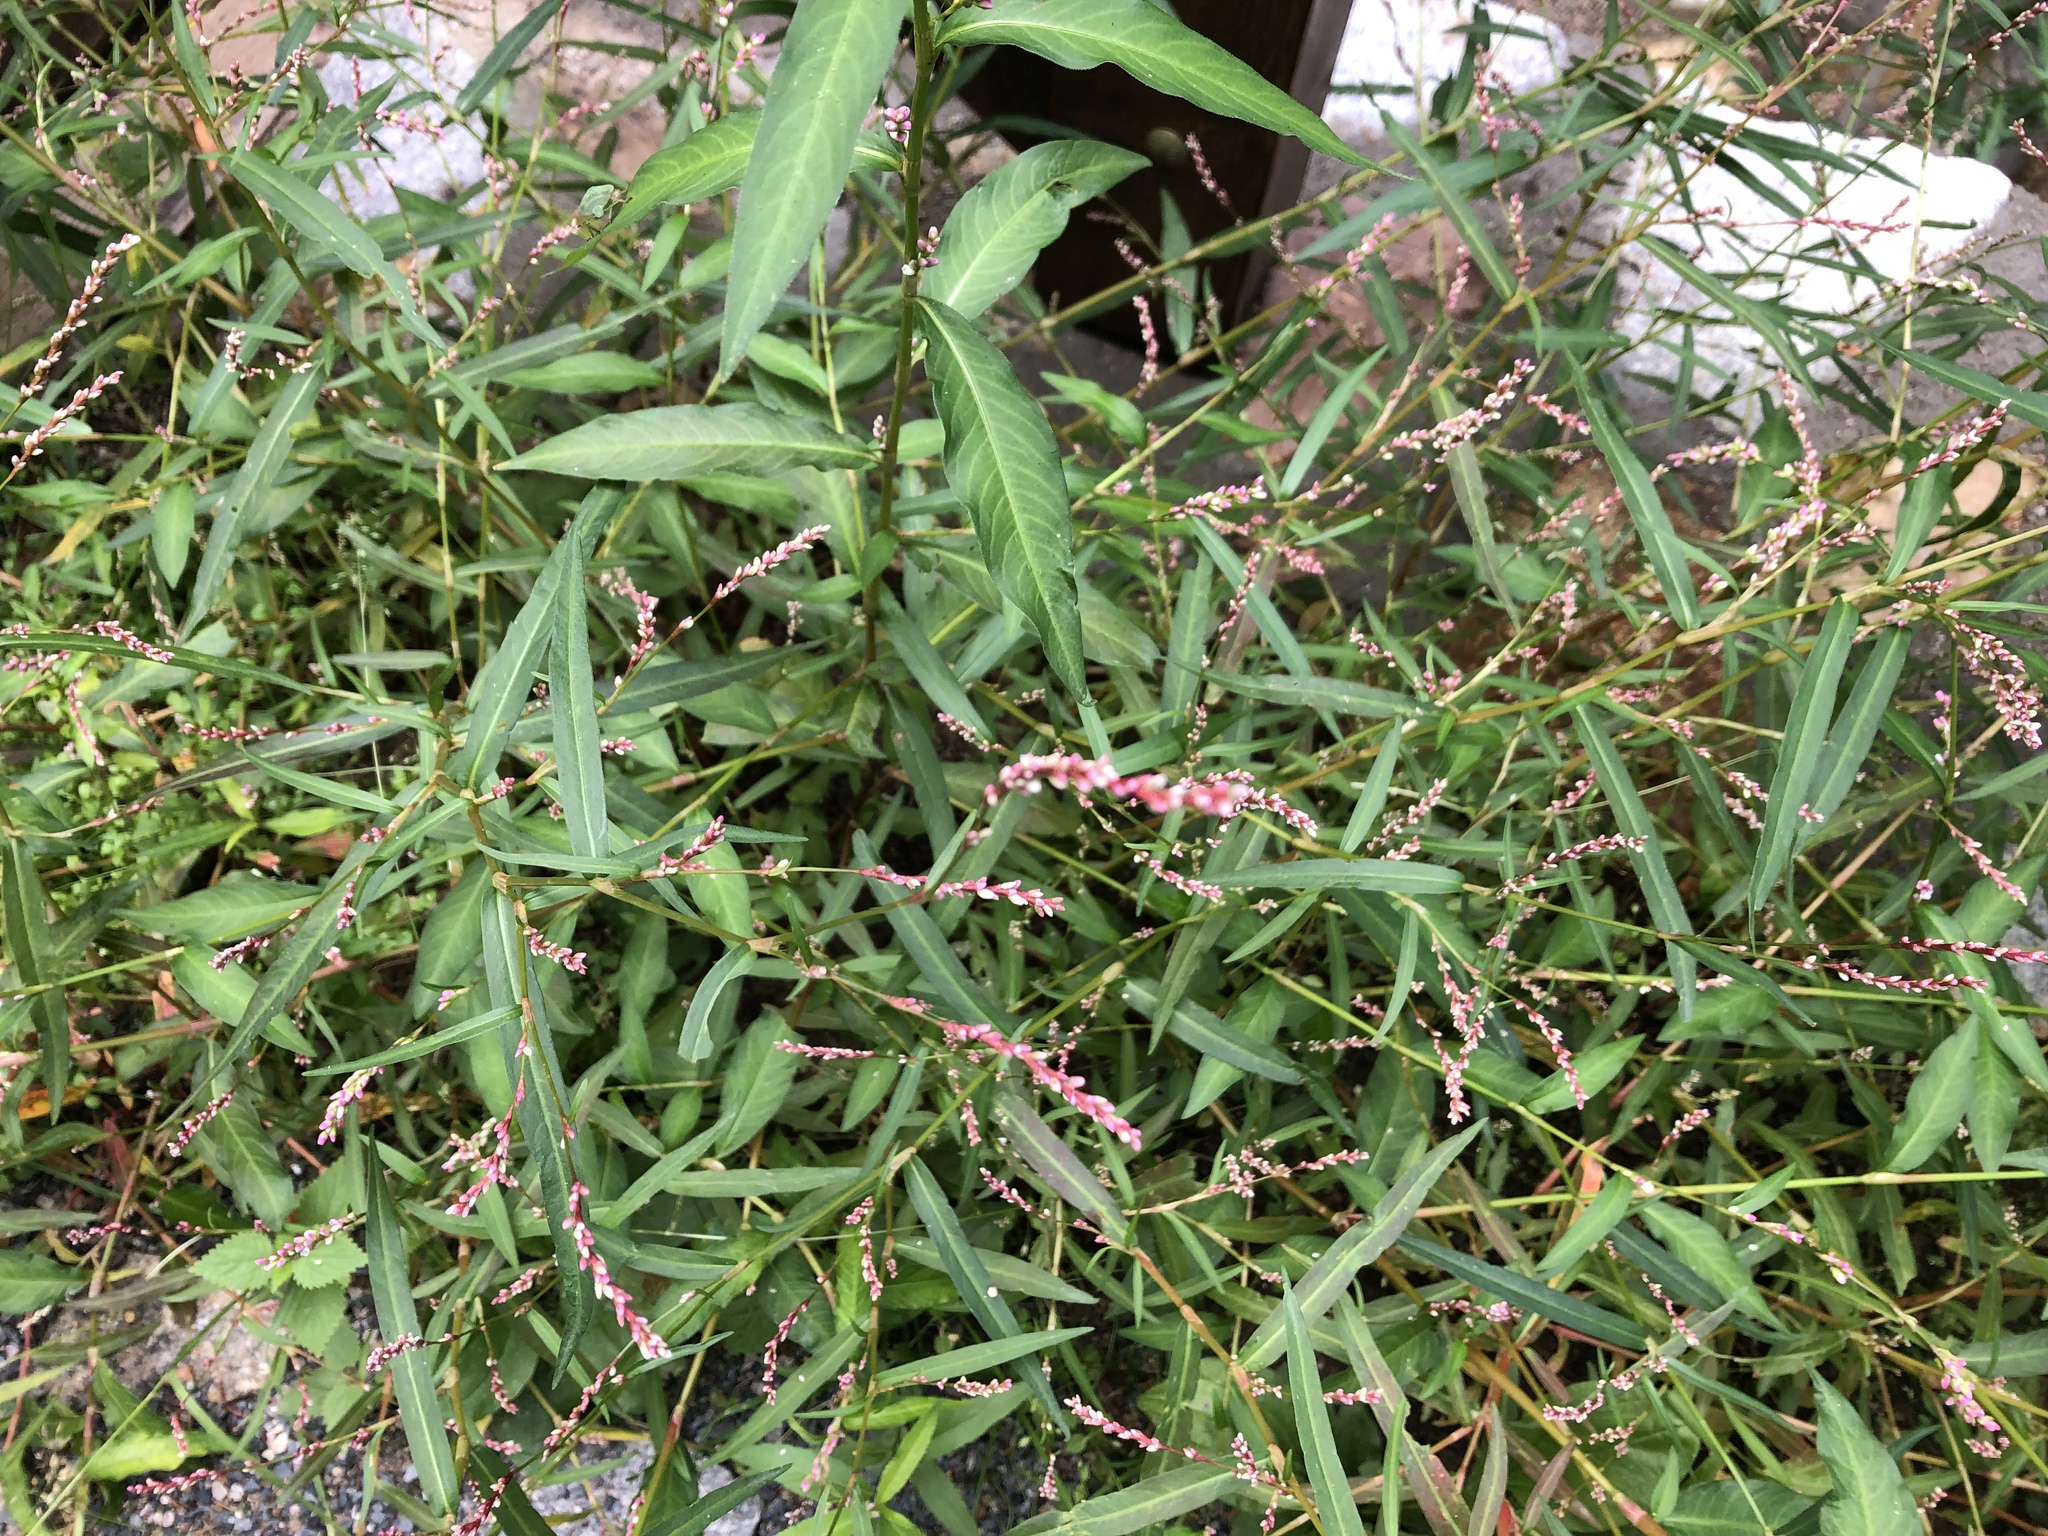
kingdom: Plantae
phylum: Tracheophyta
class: Magnoliopsida
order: Caryophyllales
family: Polygonaceae
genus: Persicaria
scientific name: Persicaria minor
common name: Small water-pepper
